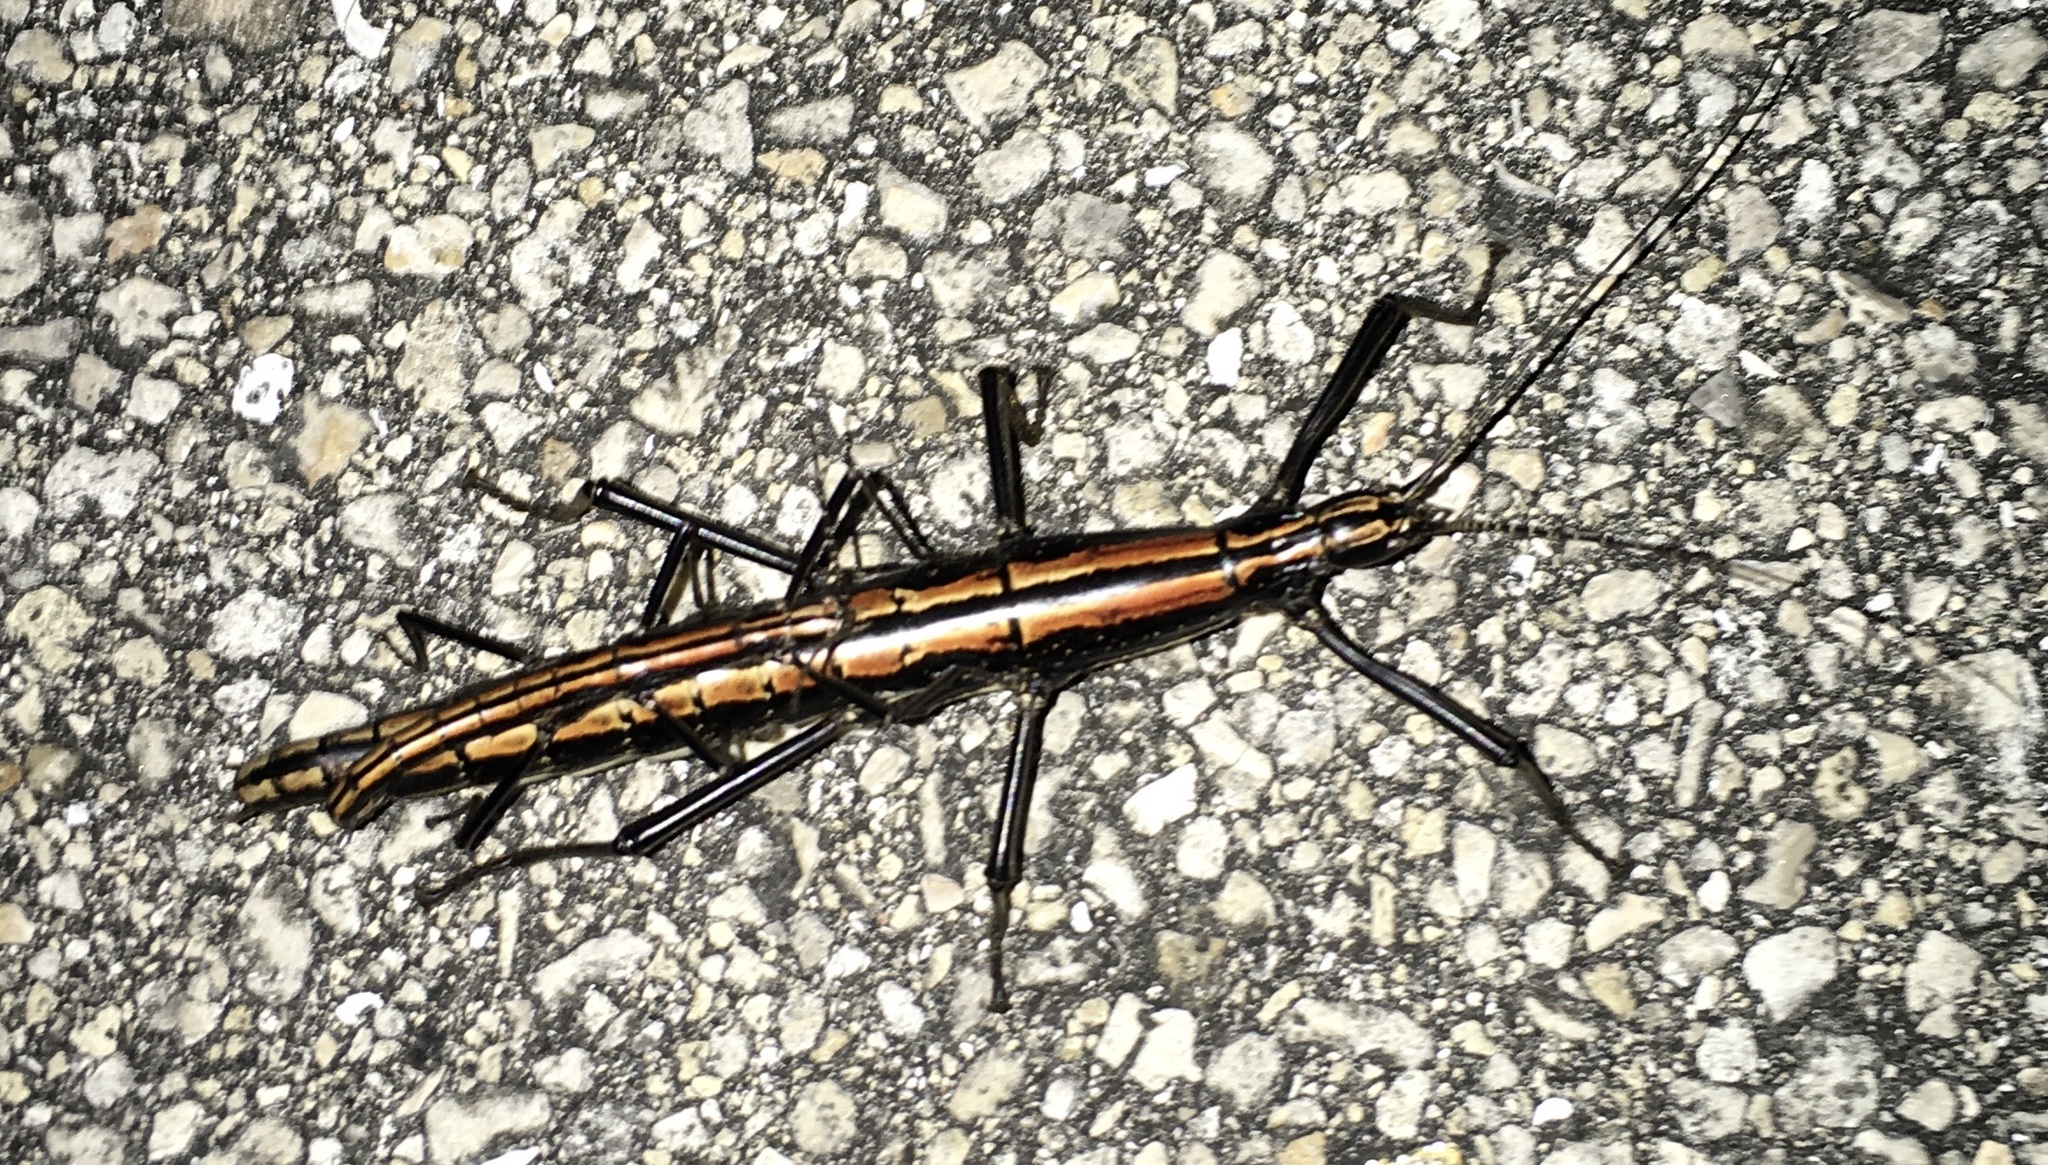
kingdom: Animalia
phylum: Arthropoda
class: Insecta
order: Phasmida
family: Pseudophasmatidae
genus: Anisomorpha
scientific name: Anisomorpha buprestoides
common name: Florida stick insect
